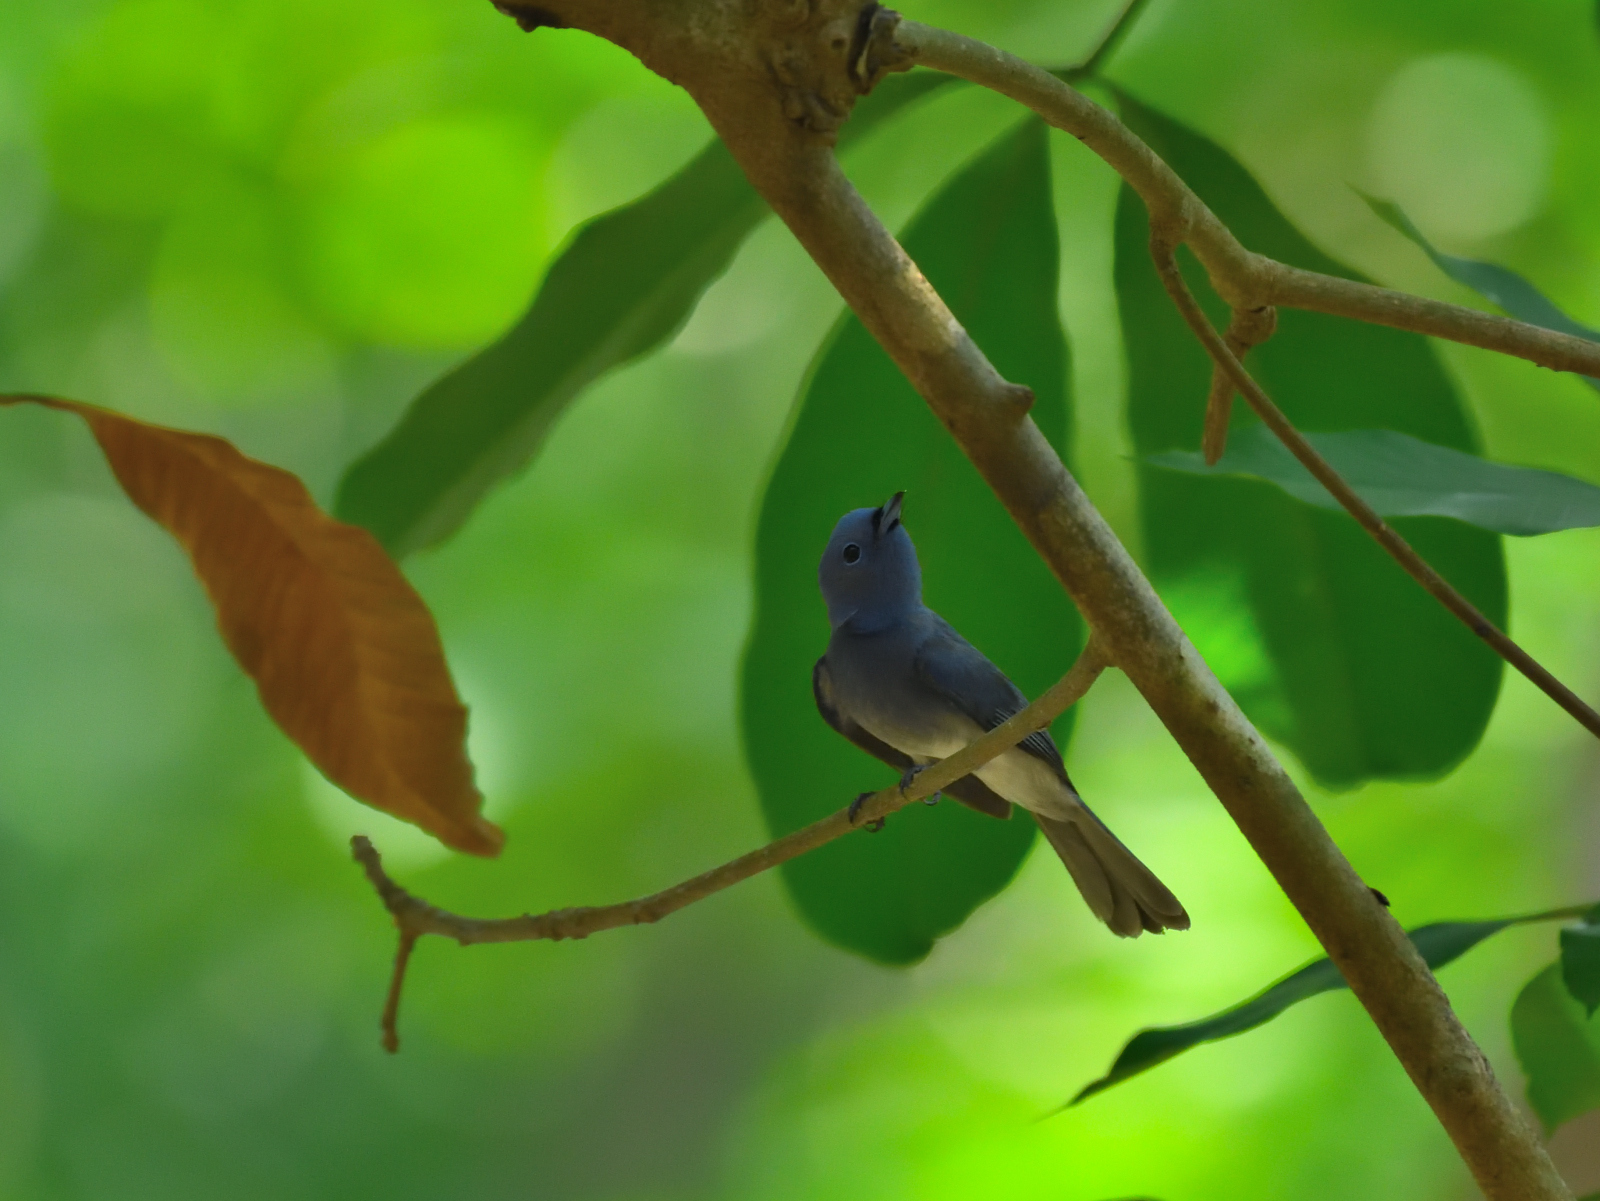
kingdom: Animalia
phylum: Chordata
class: Aves
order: Passeriformes
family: Monarchidae
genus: Hypothymis
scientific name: Hypothymis azurea
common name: Black-naped monarch
